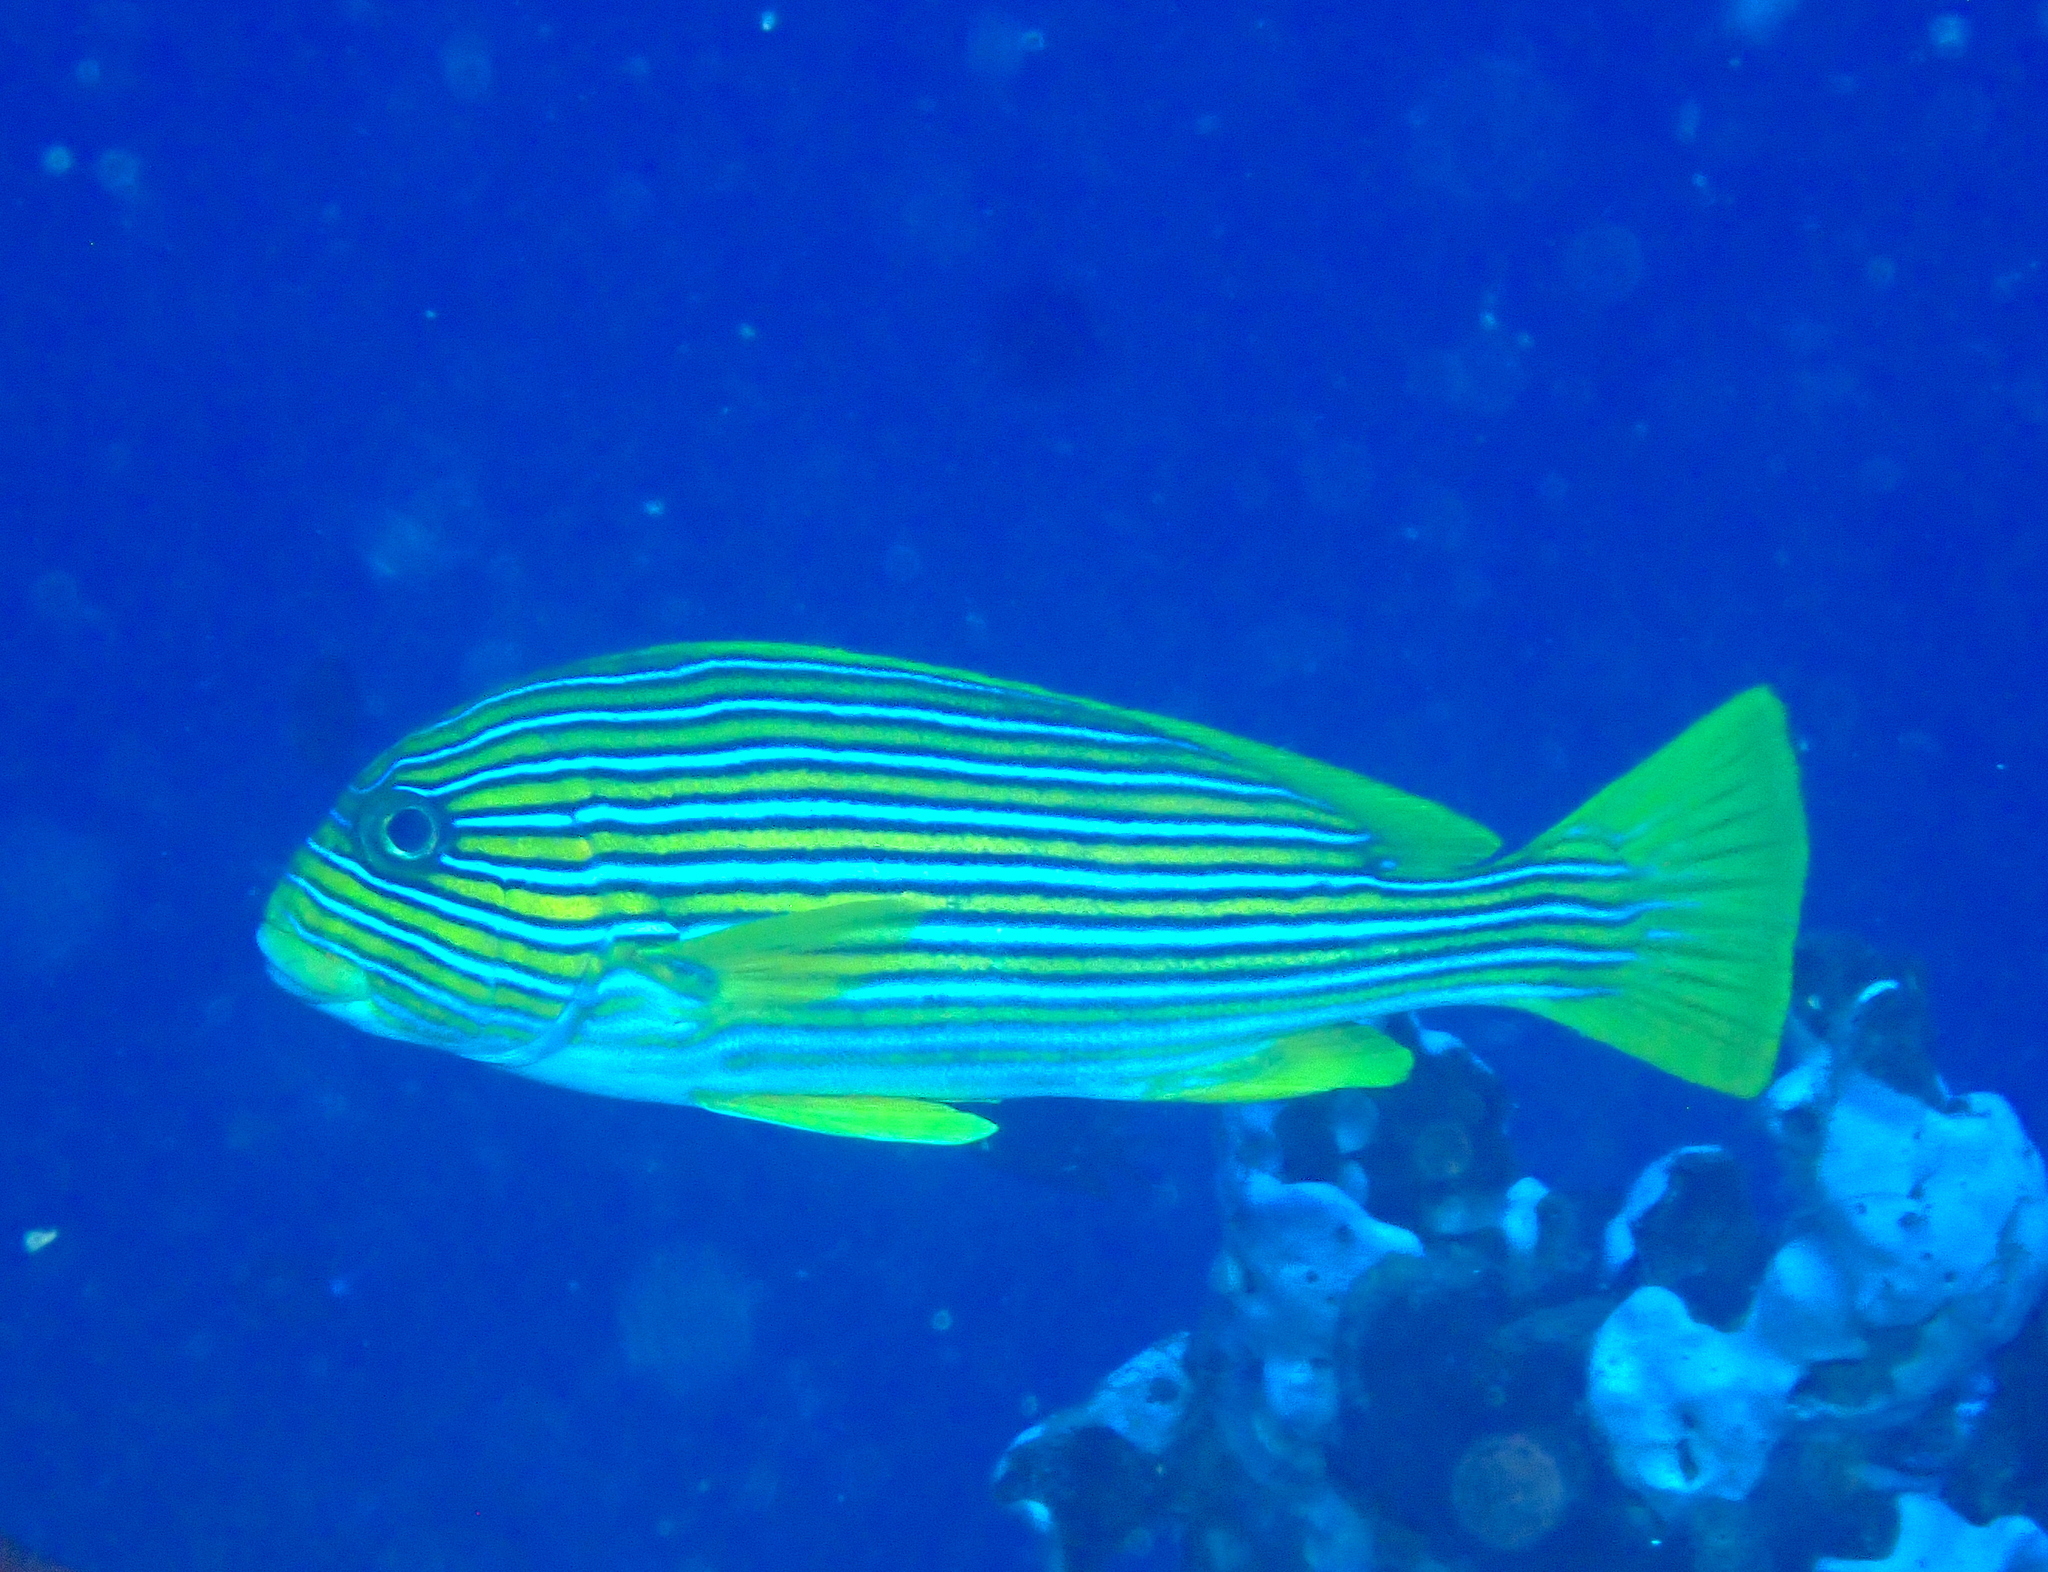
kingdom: Animalia
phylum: Chordata
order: Perciformes
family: Haemulidae
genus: Plectorhinchus
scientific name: Plectorhinchus polytaenia
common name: Ribboned sweetlips
